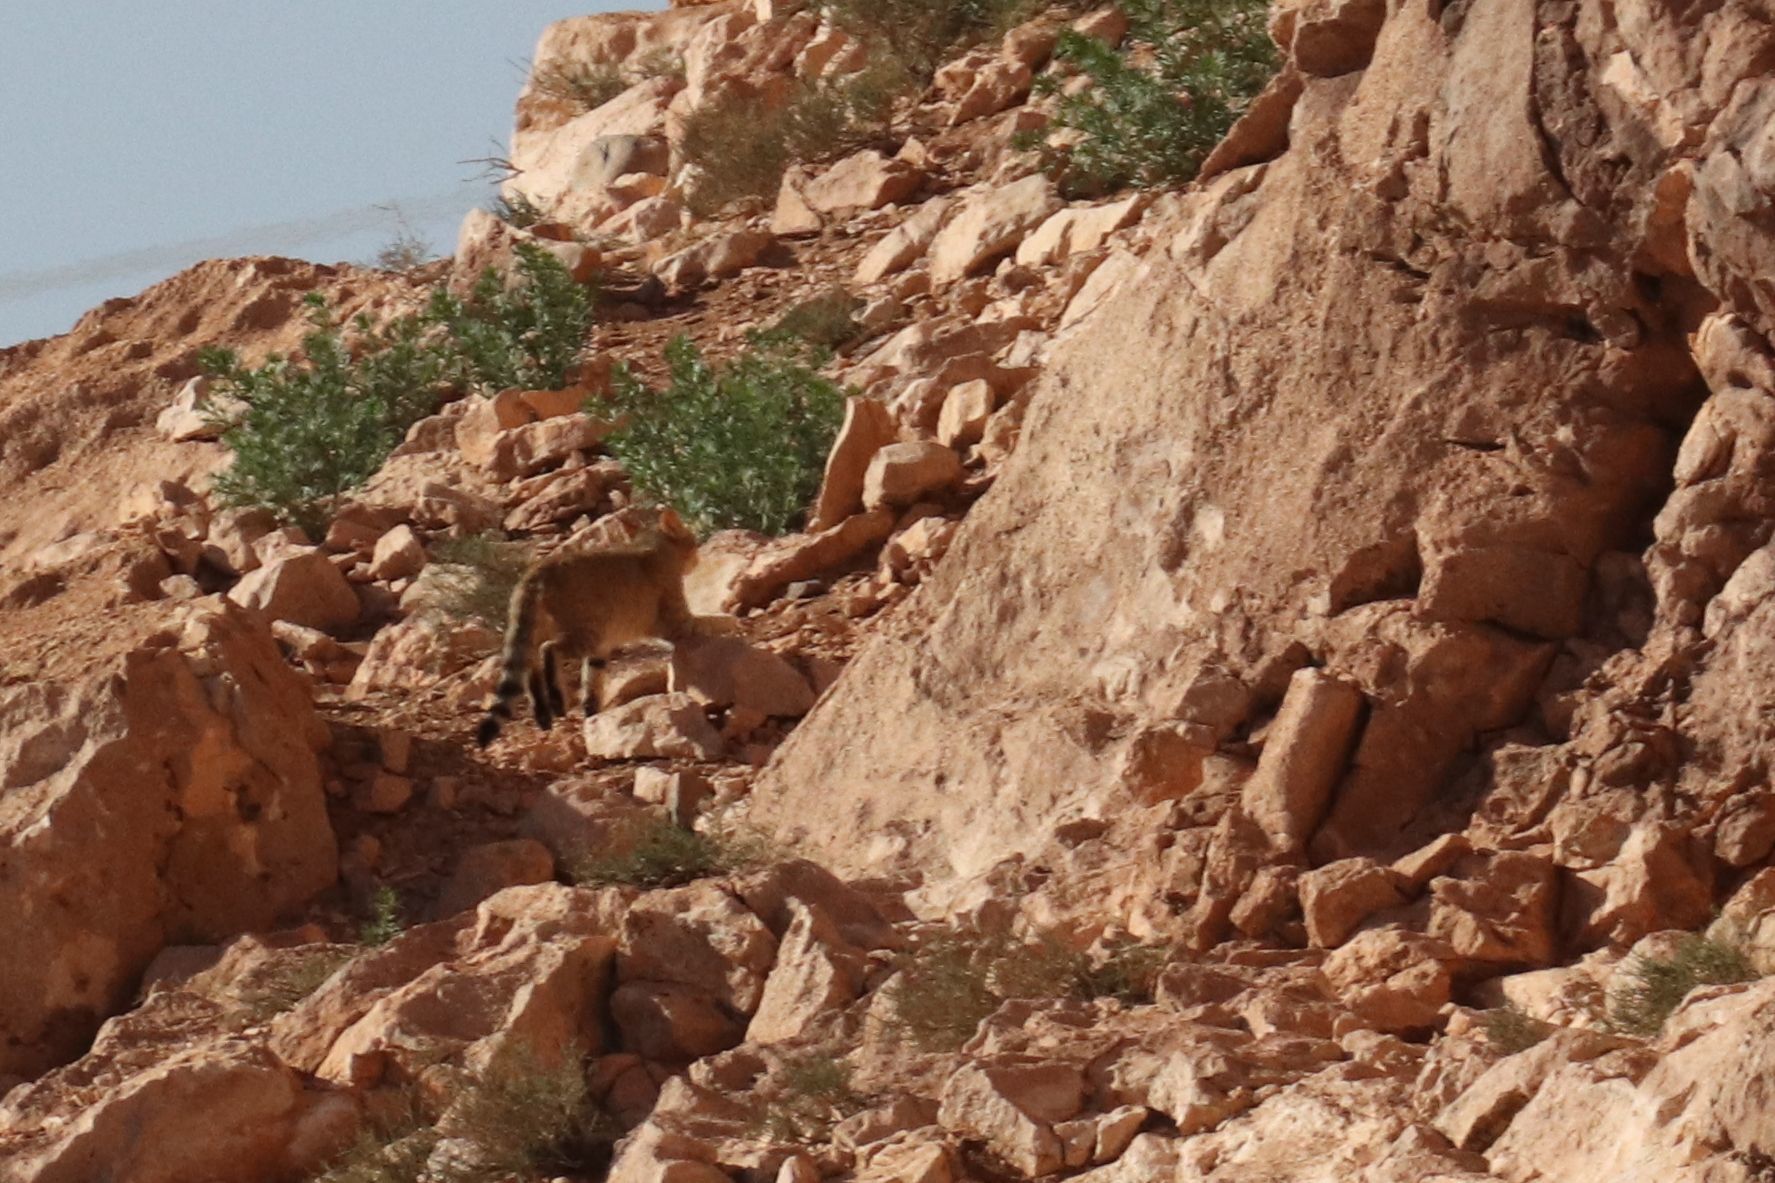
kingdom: Animalia
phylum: Chordata
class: Mammalia
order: Carnivora
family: Felidae
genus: Felis
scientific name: Felis silvestris
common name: Wildcat
